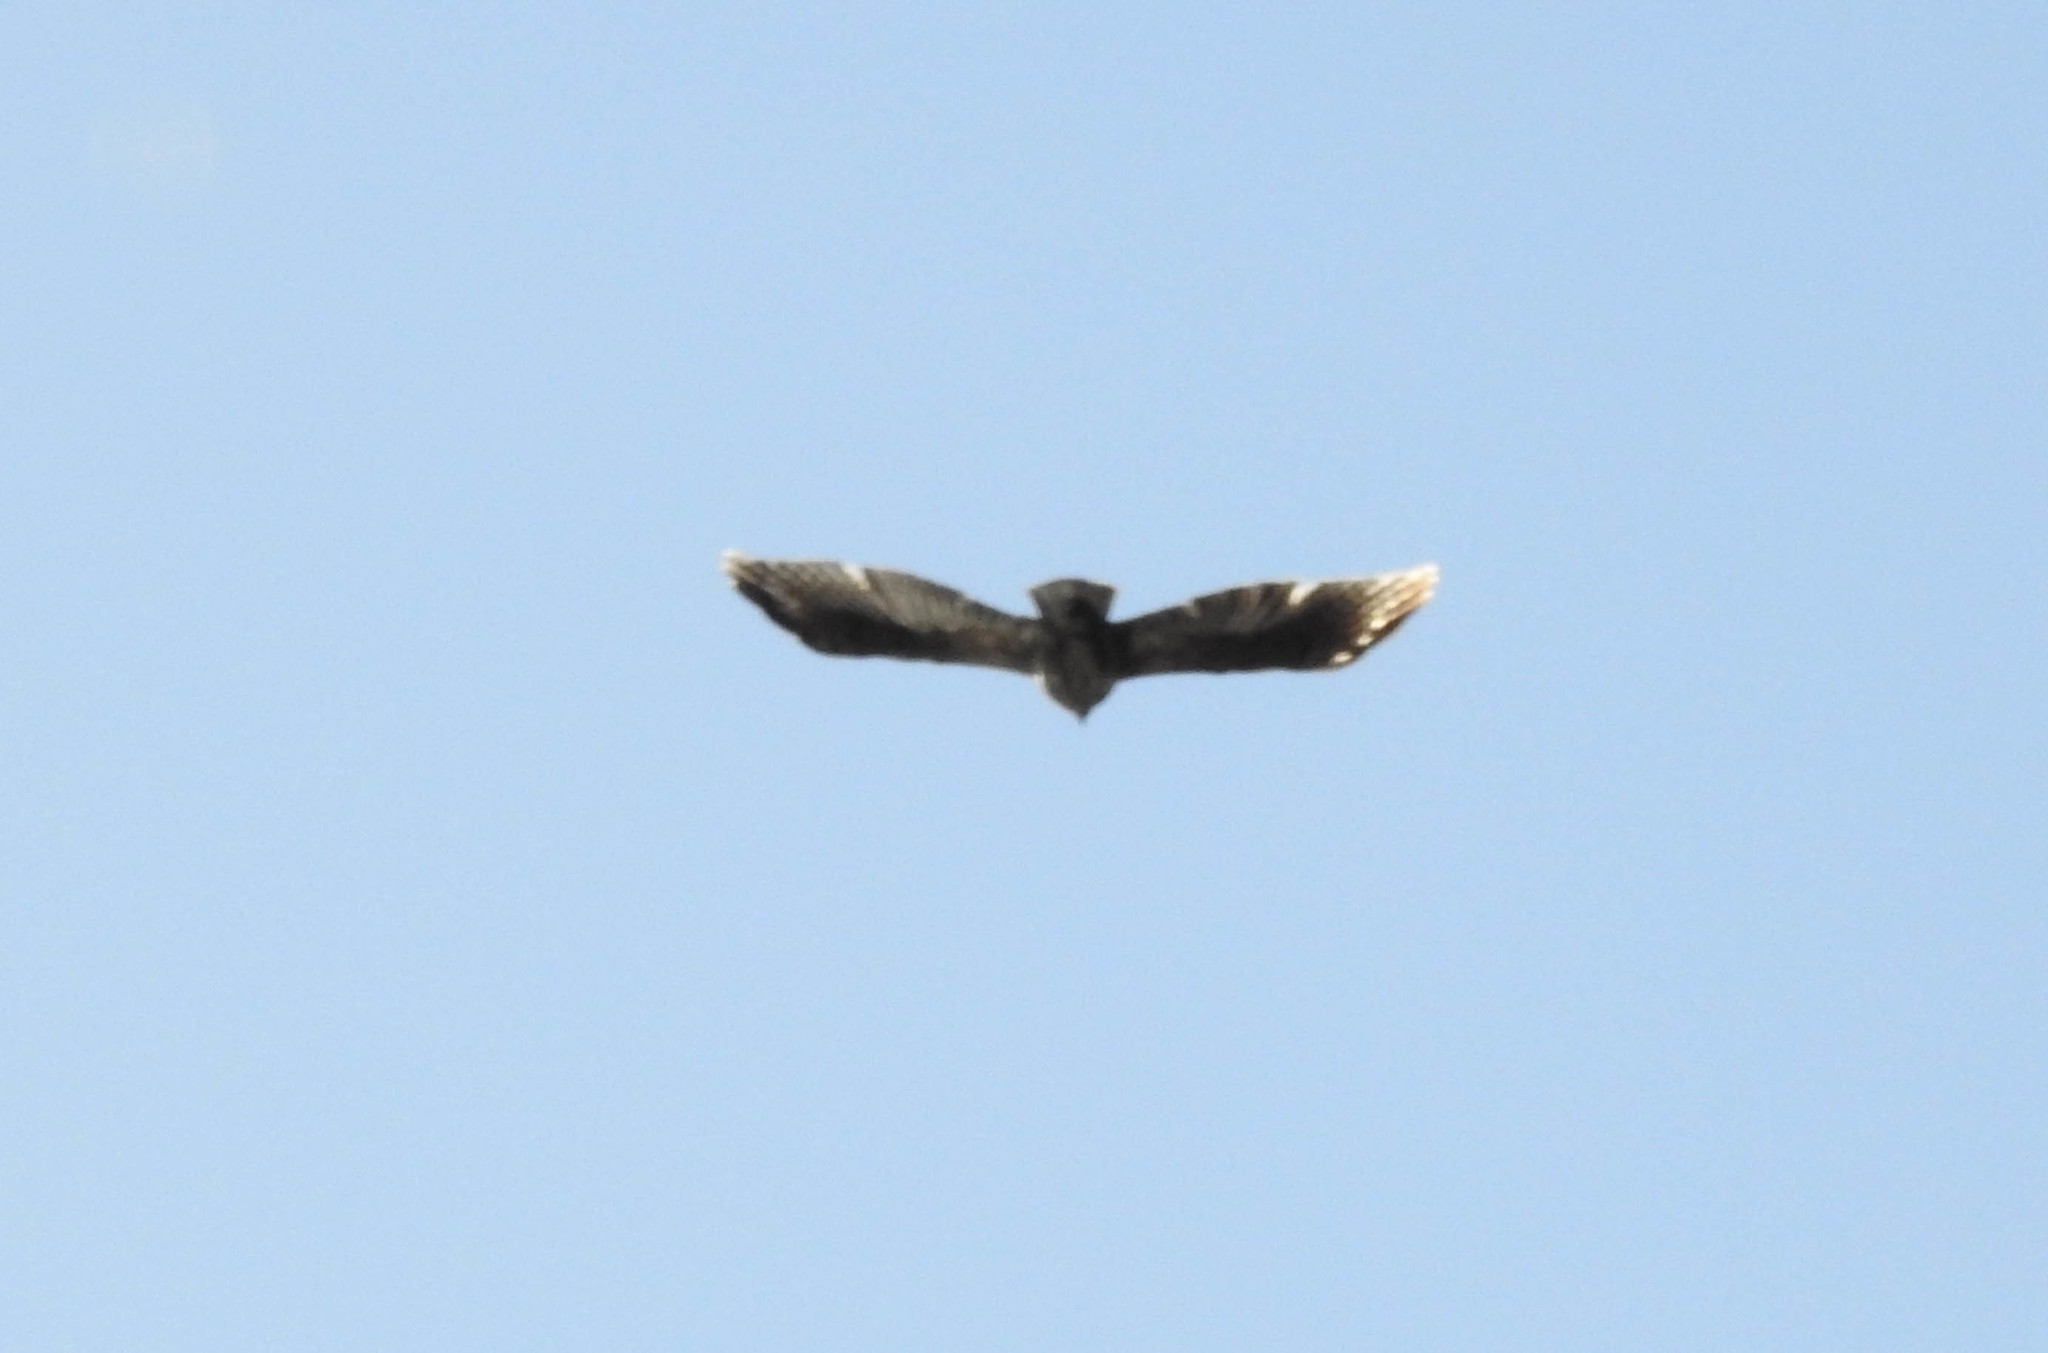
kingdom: Animalia
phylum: Chordata
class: Aves
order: Accipitriformes
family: Cathartidae
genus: Cathartes
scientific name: Cathartes aura
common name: Turkey vulture
